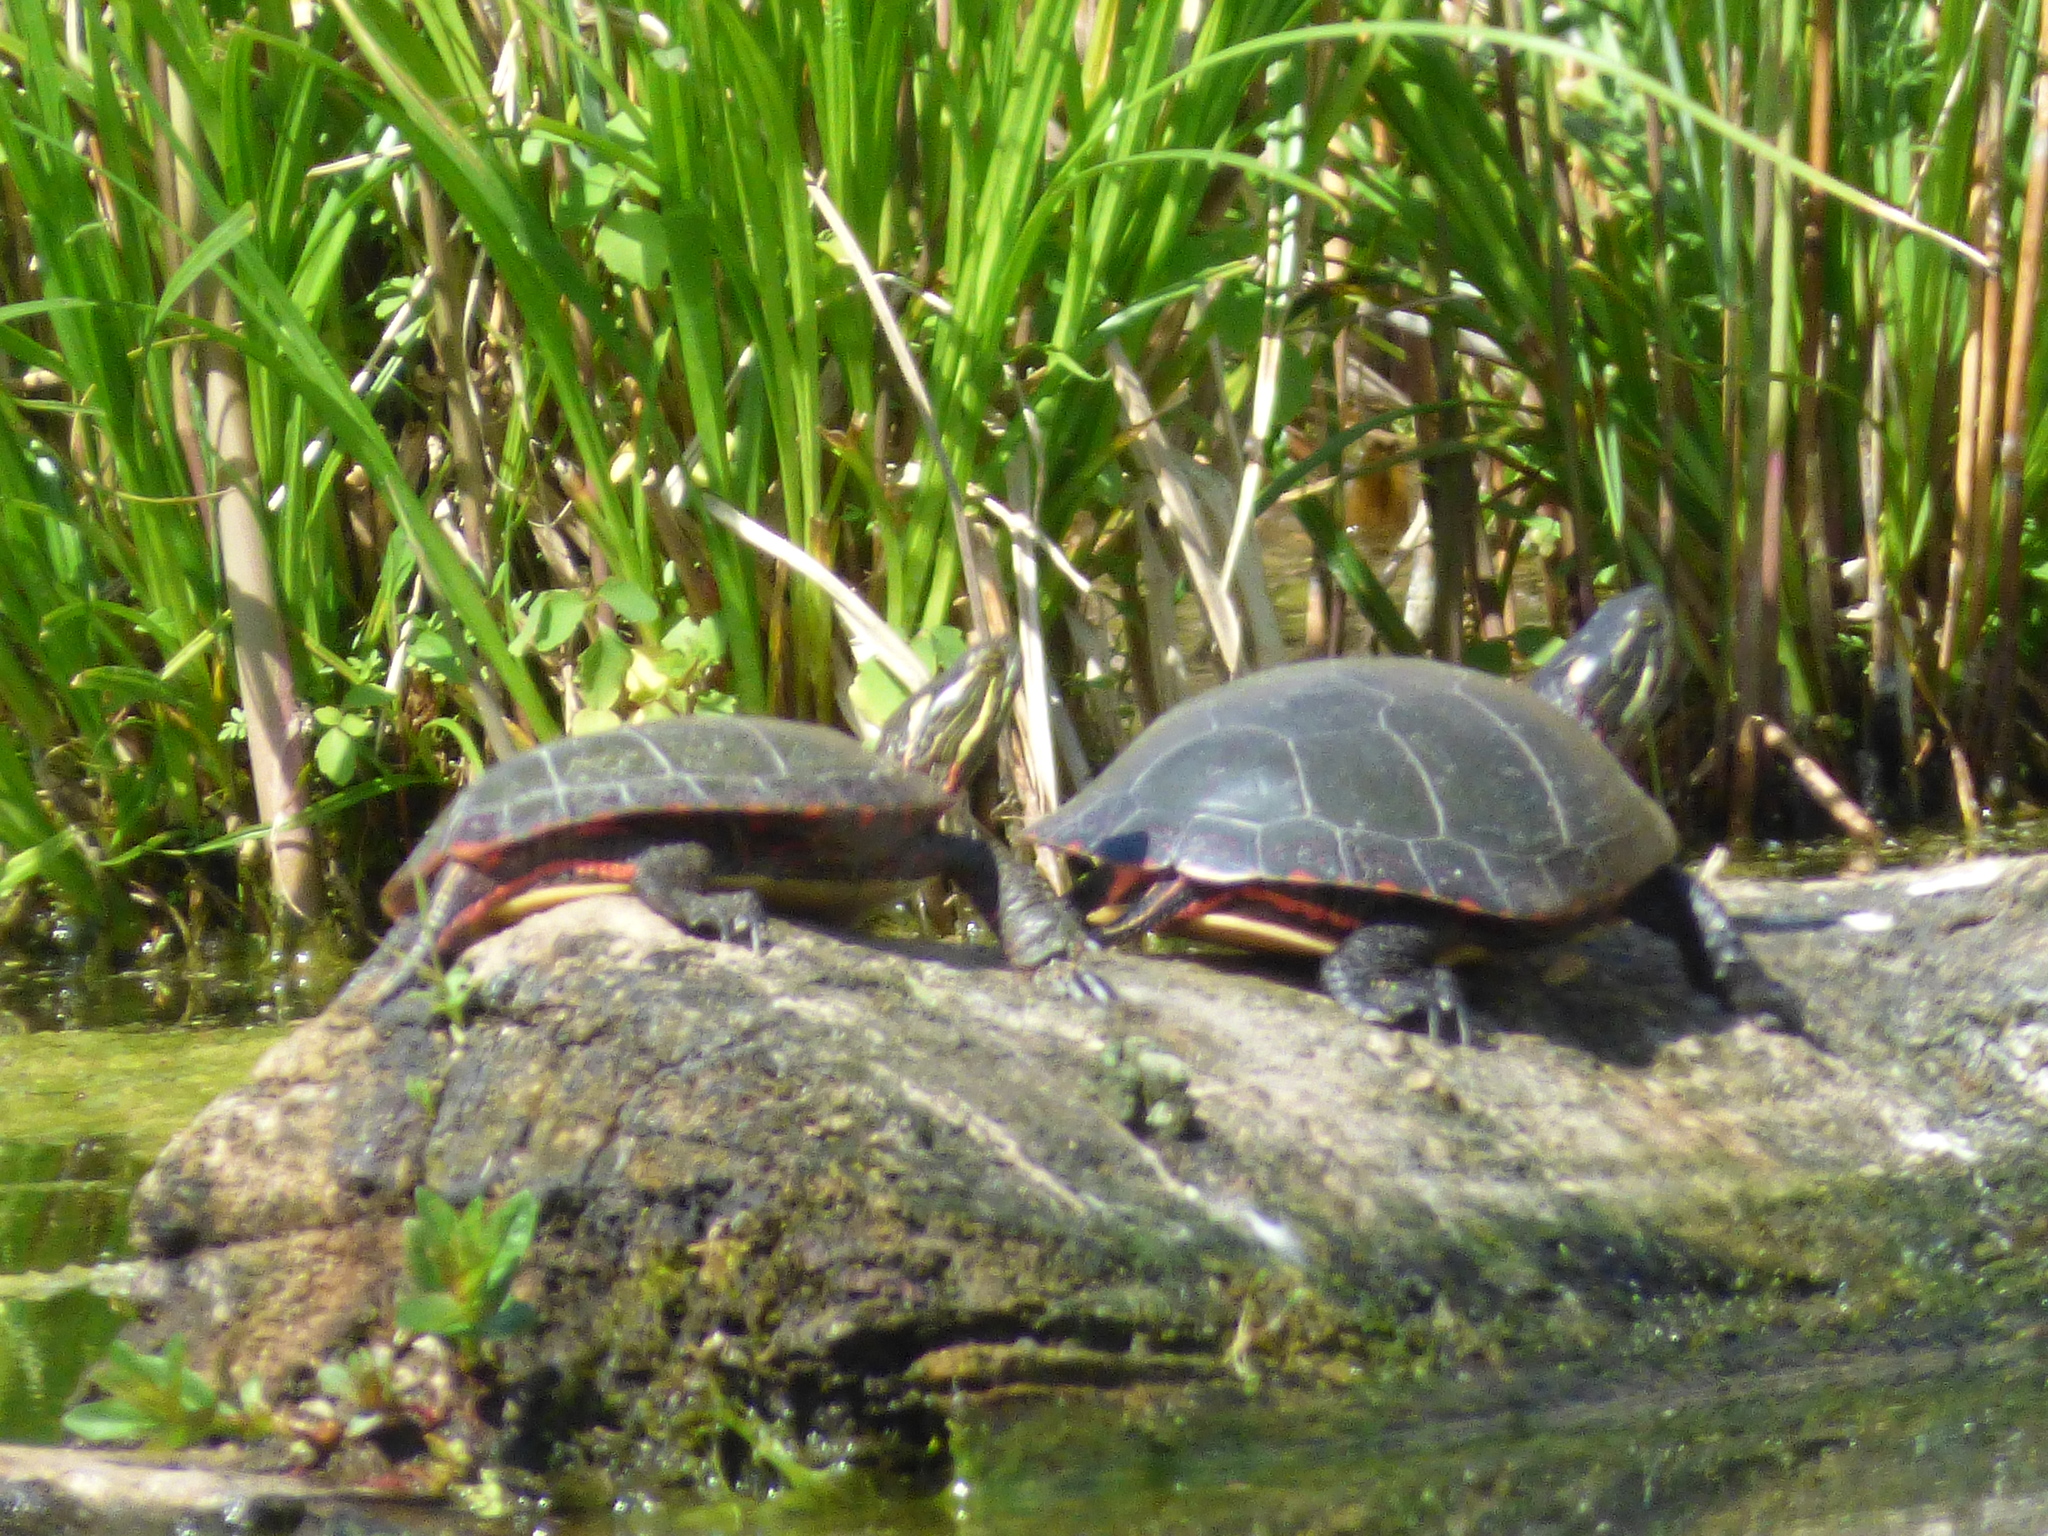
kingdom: Animalia
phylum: Chordata
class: Testudines
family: Emydidae
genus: Chrysemys
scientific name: Chrysemys picta
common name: Painted turtle
